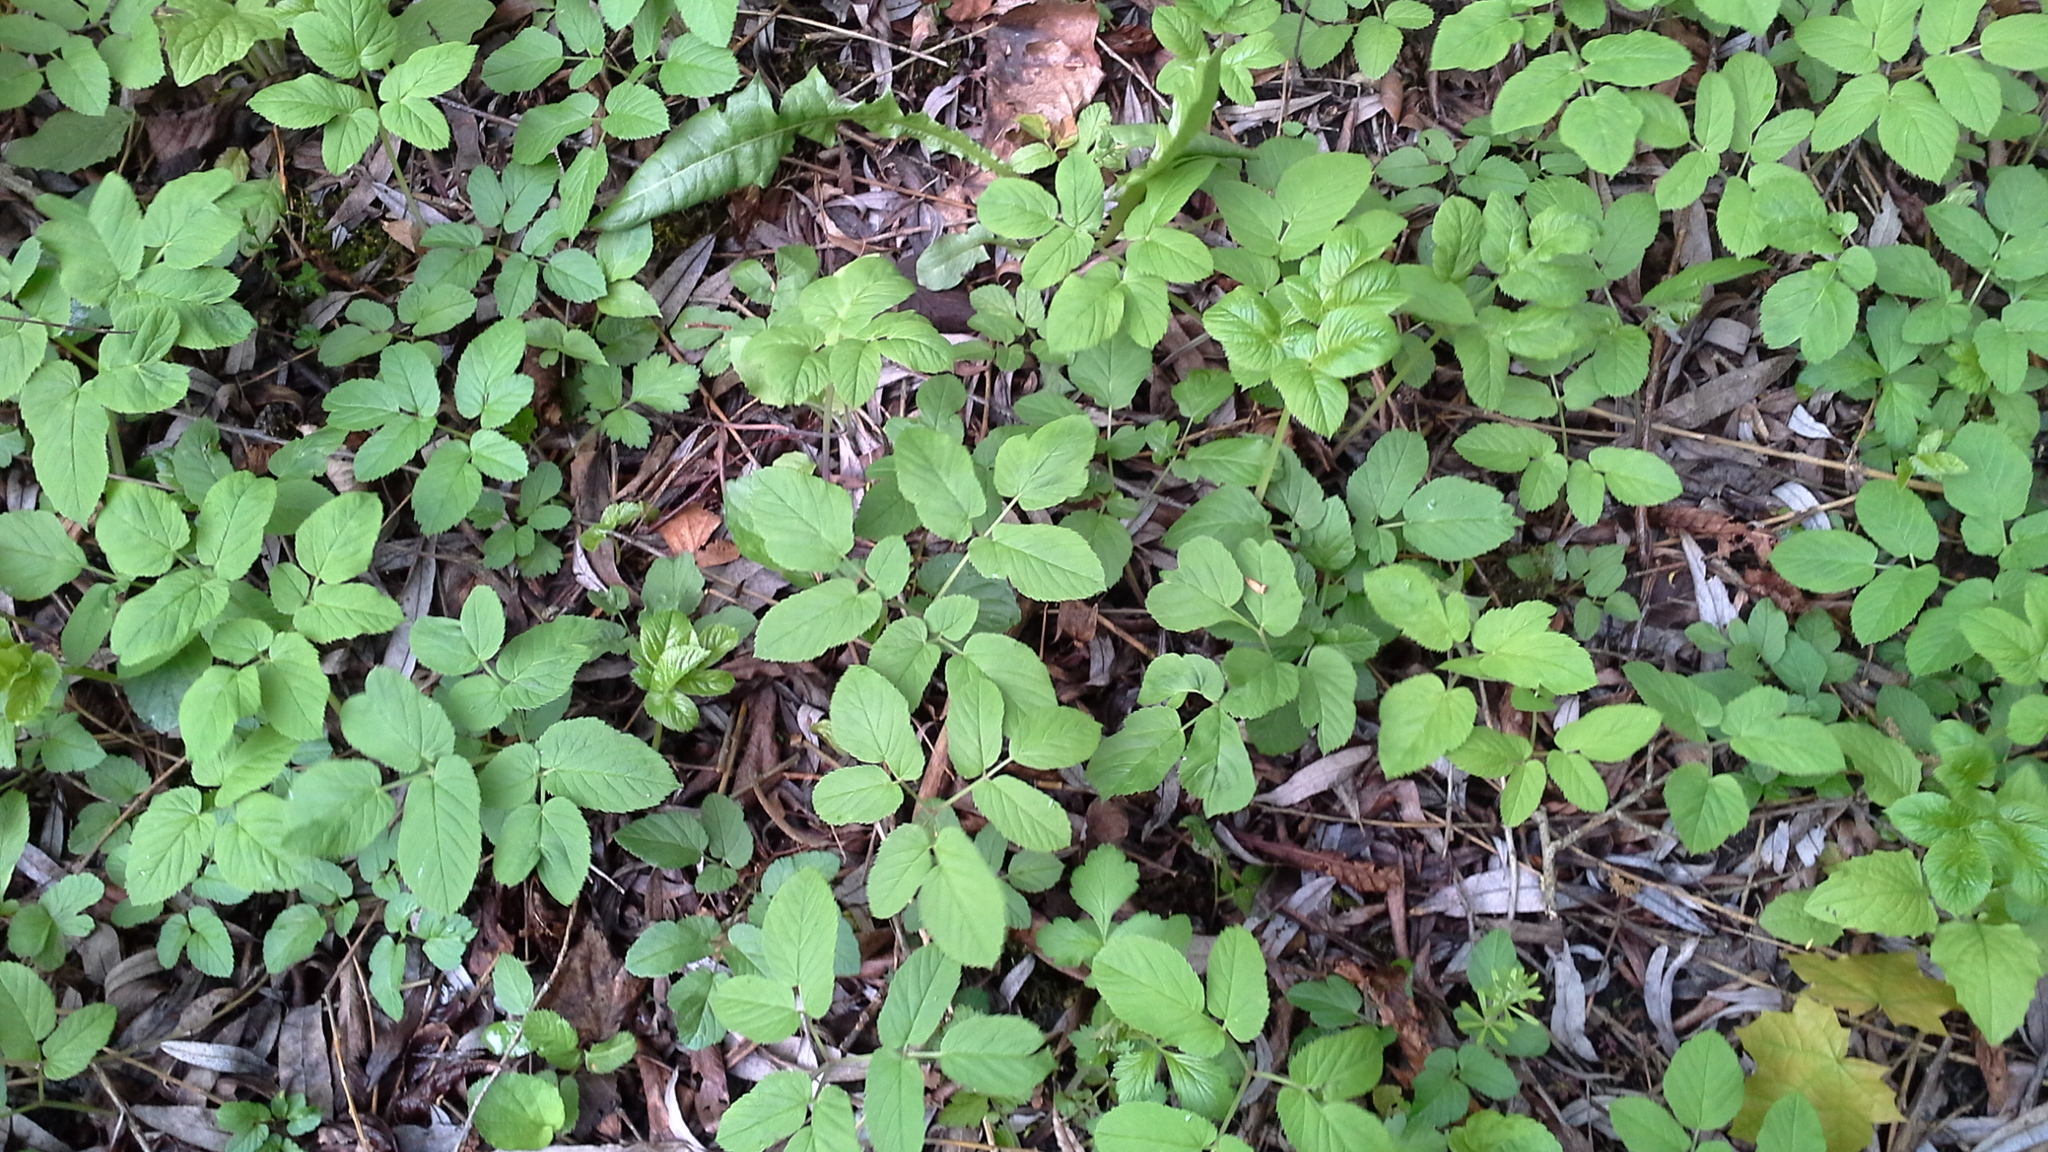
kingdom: Plantae
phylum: Tracheophyta
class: Magnoliopsida
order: Apiales
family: Apiaceae
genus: Aegopodium
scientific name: Aegopodium podagraria
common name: Ground-elder
